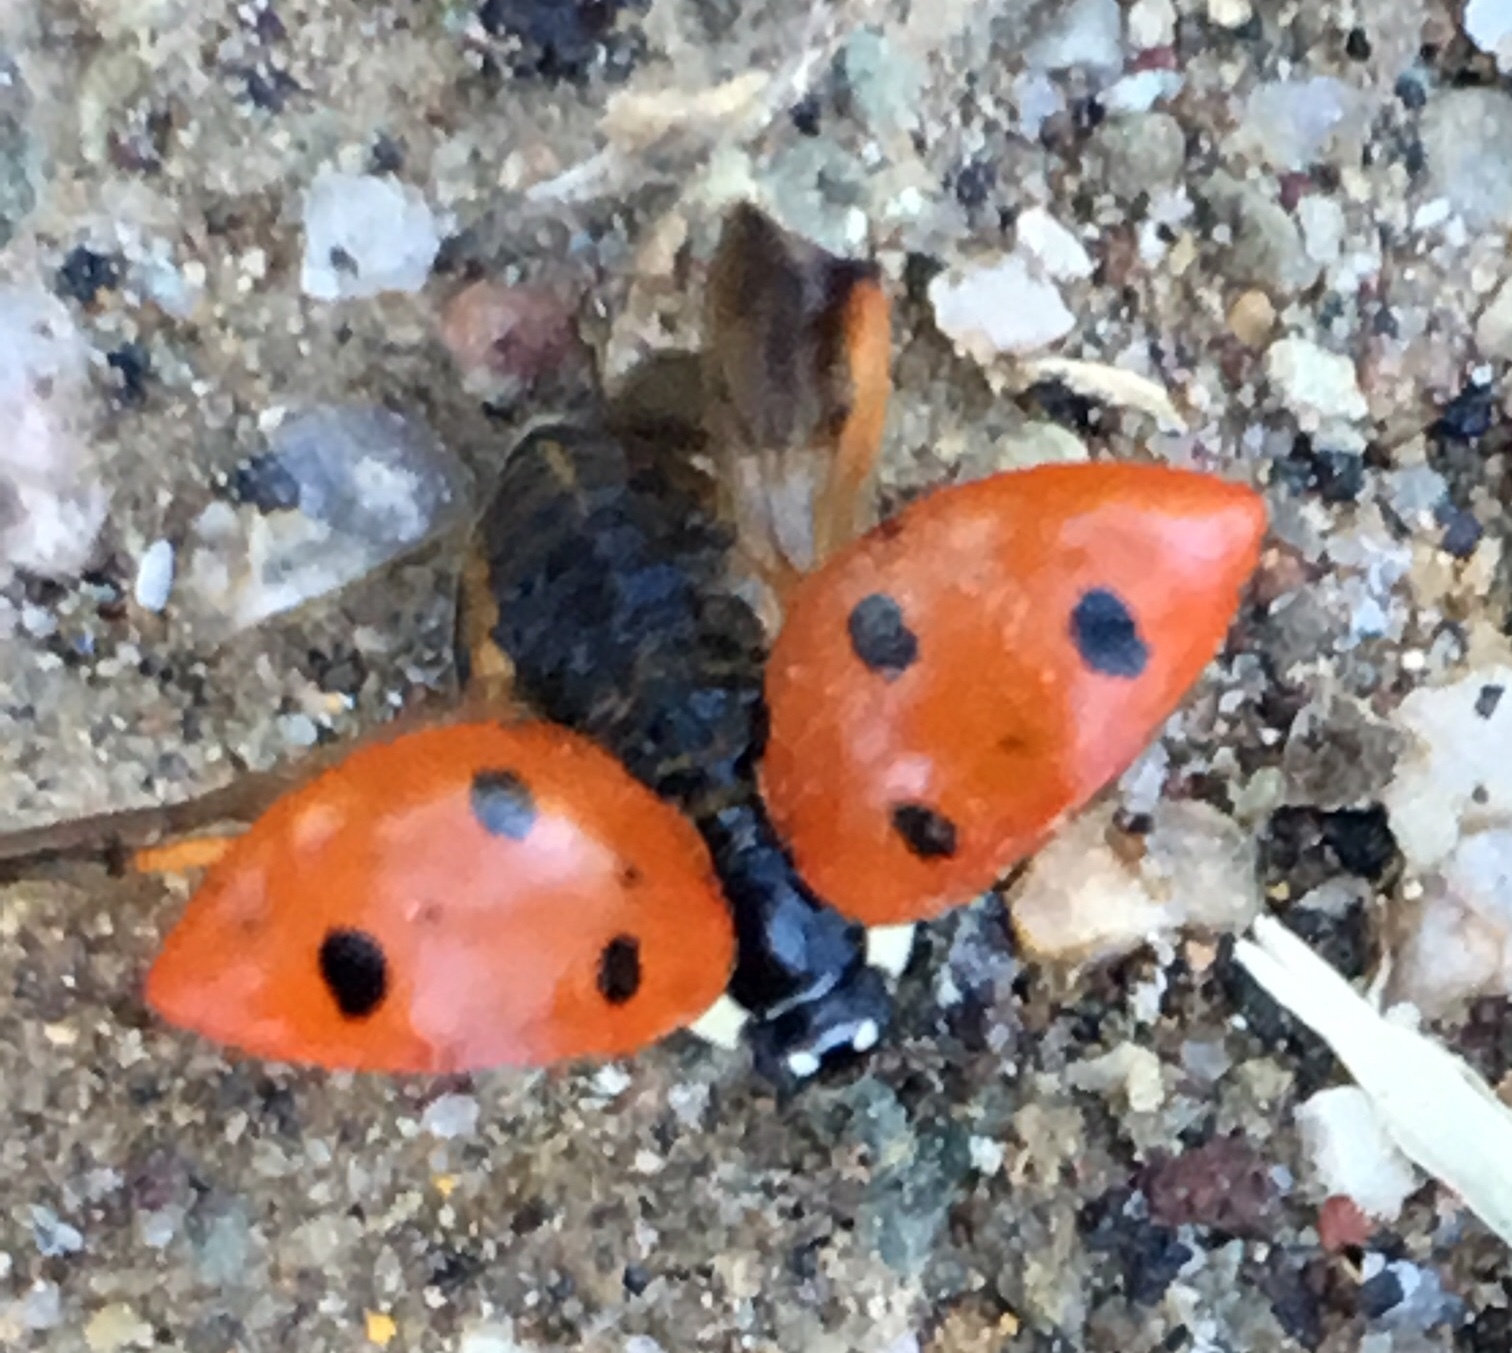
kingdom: Animalia
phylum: Arthropoda
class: Insecta
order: Coleoptera
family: Coccinellidae
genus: Coccinella
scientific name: Coccinella septempunctata
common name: Sevenspotted lady beetle
